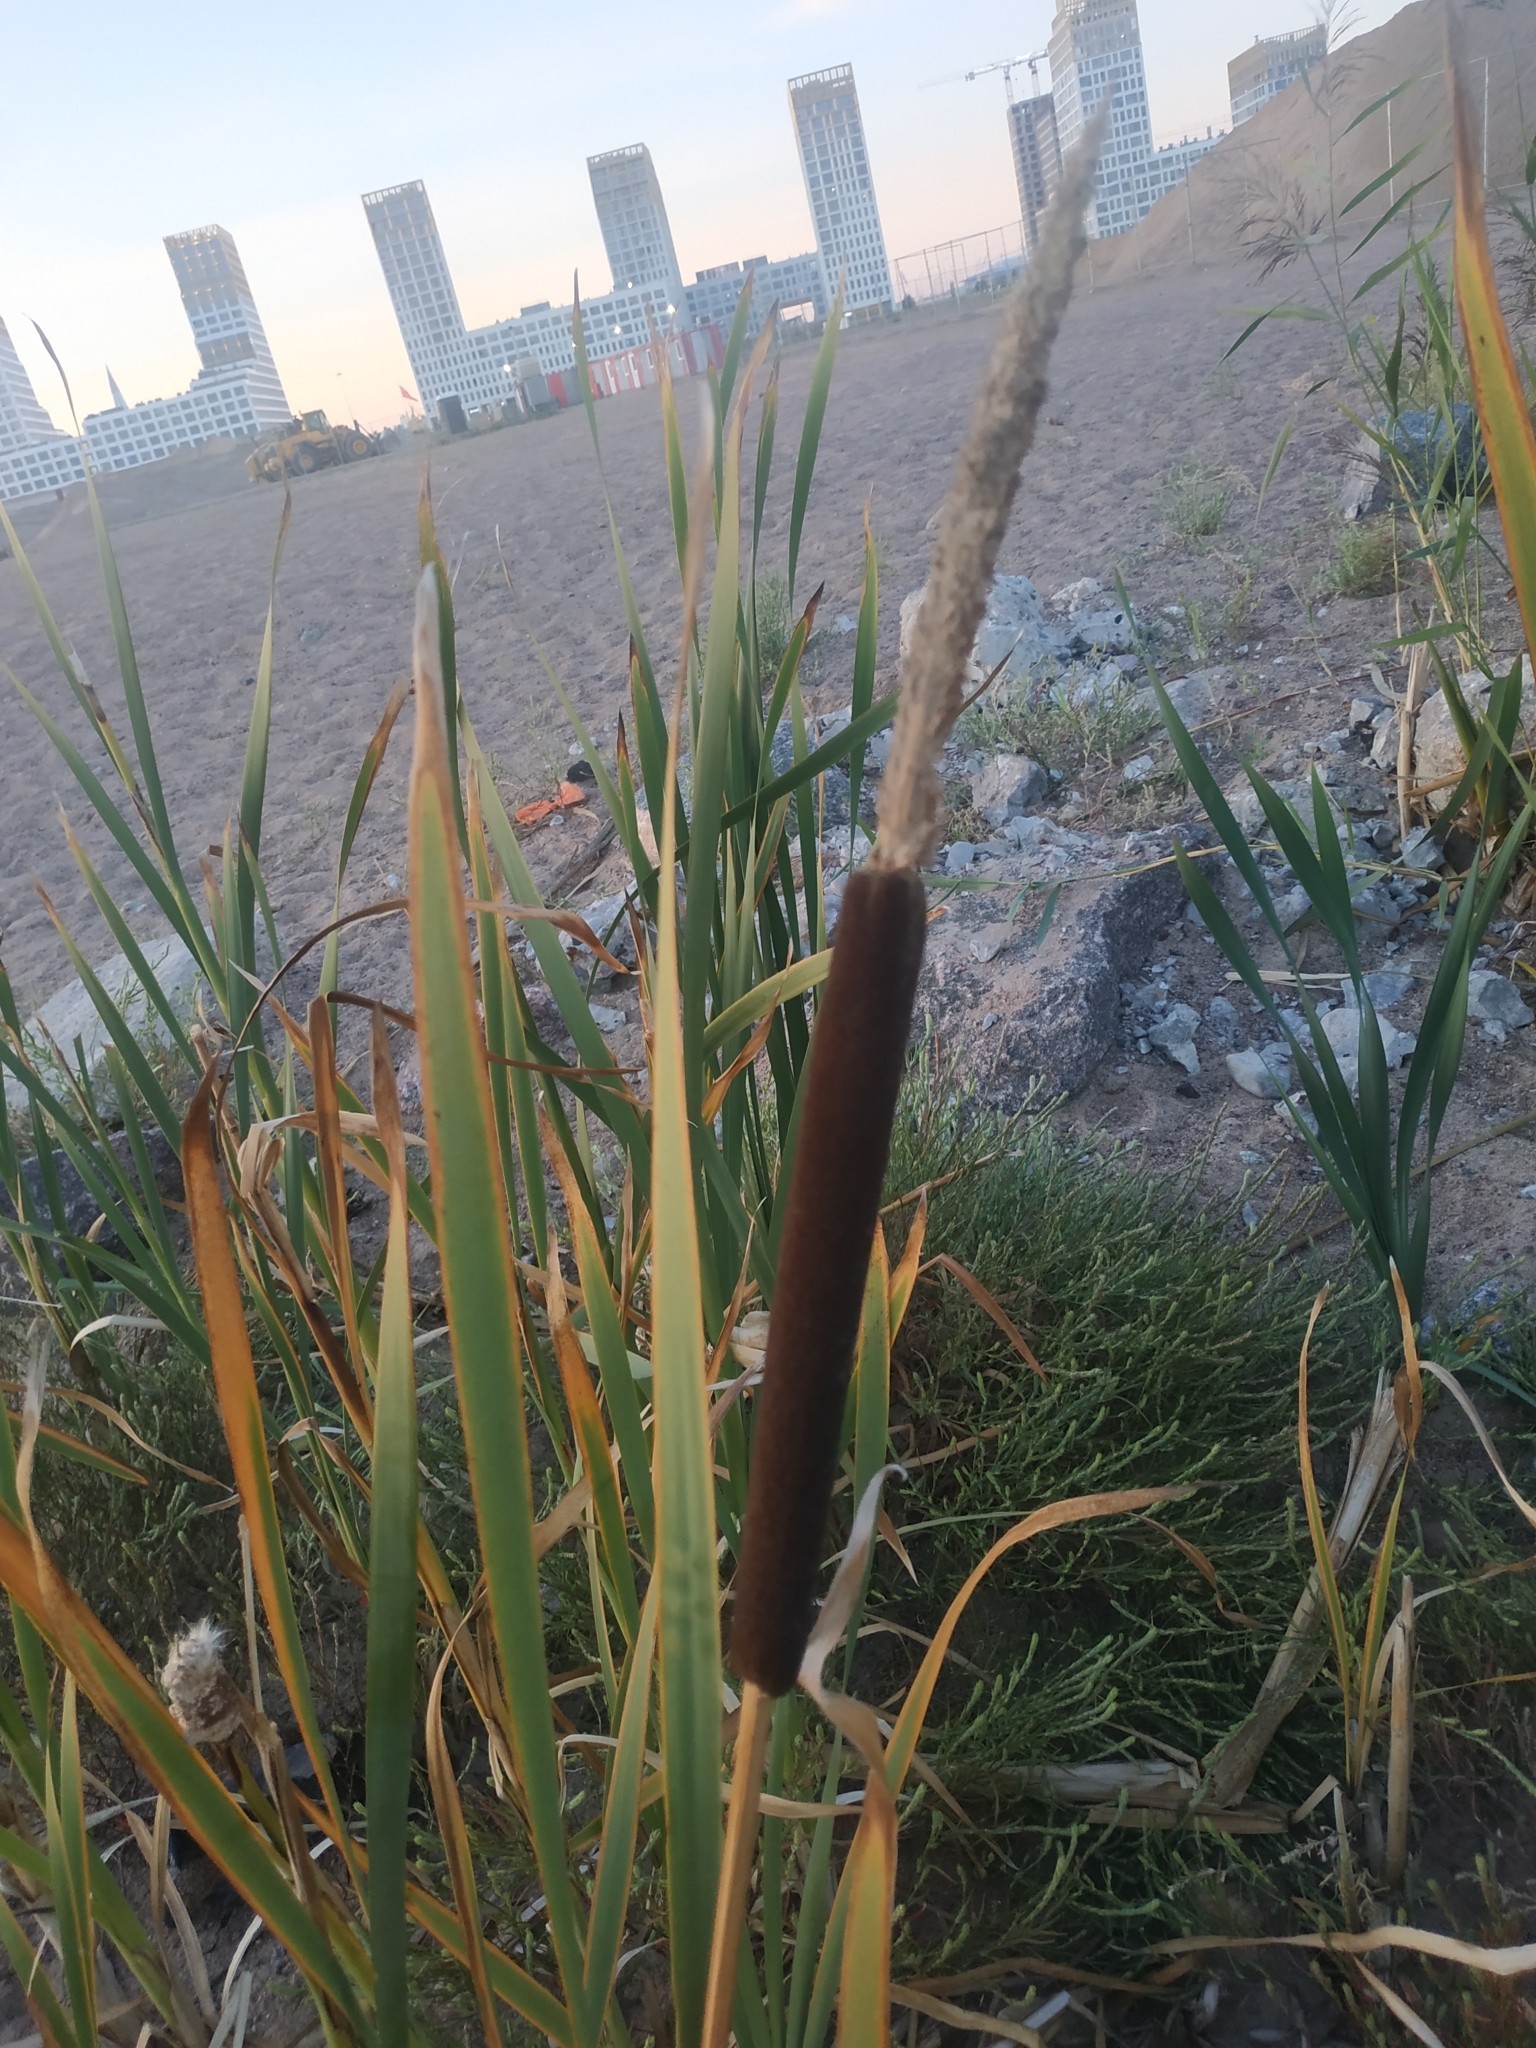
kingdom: Plantae
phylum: Tracheophyta
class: Liliopsida
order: Poales
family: Typhaceae
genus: Typha
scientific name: Typha latifolia
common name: Broadleaf cattail
